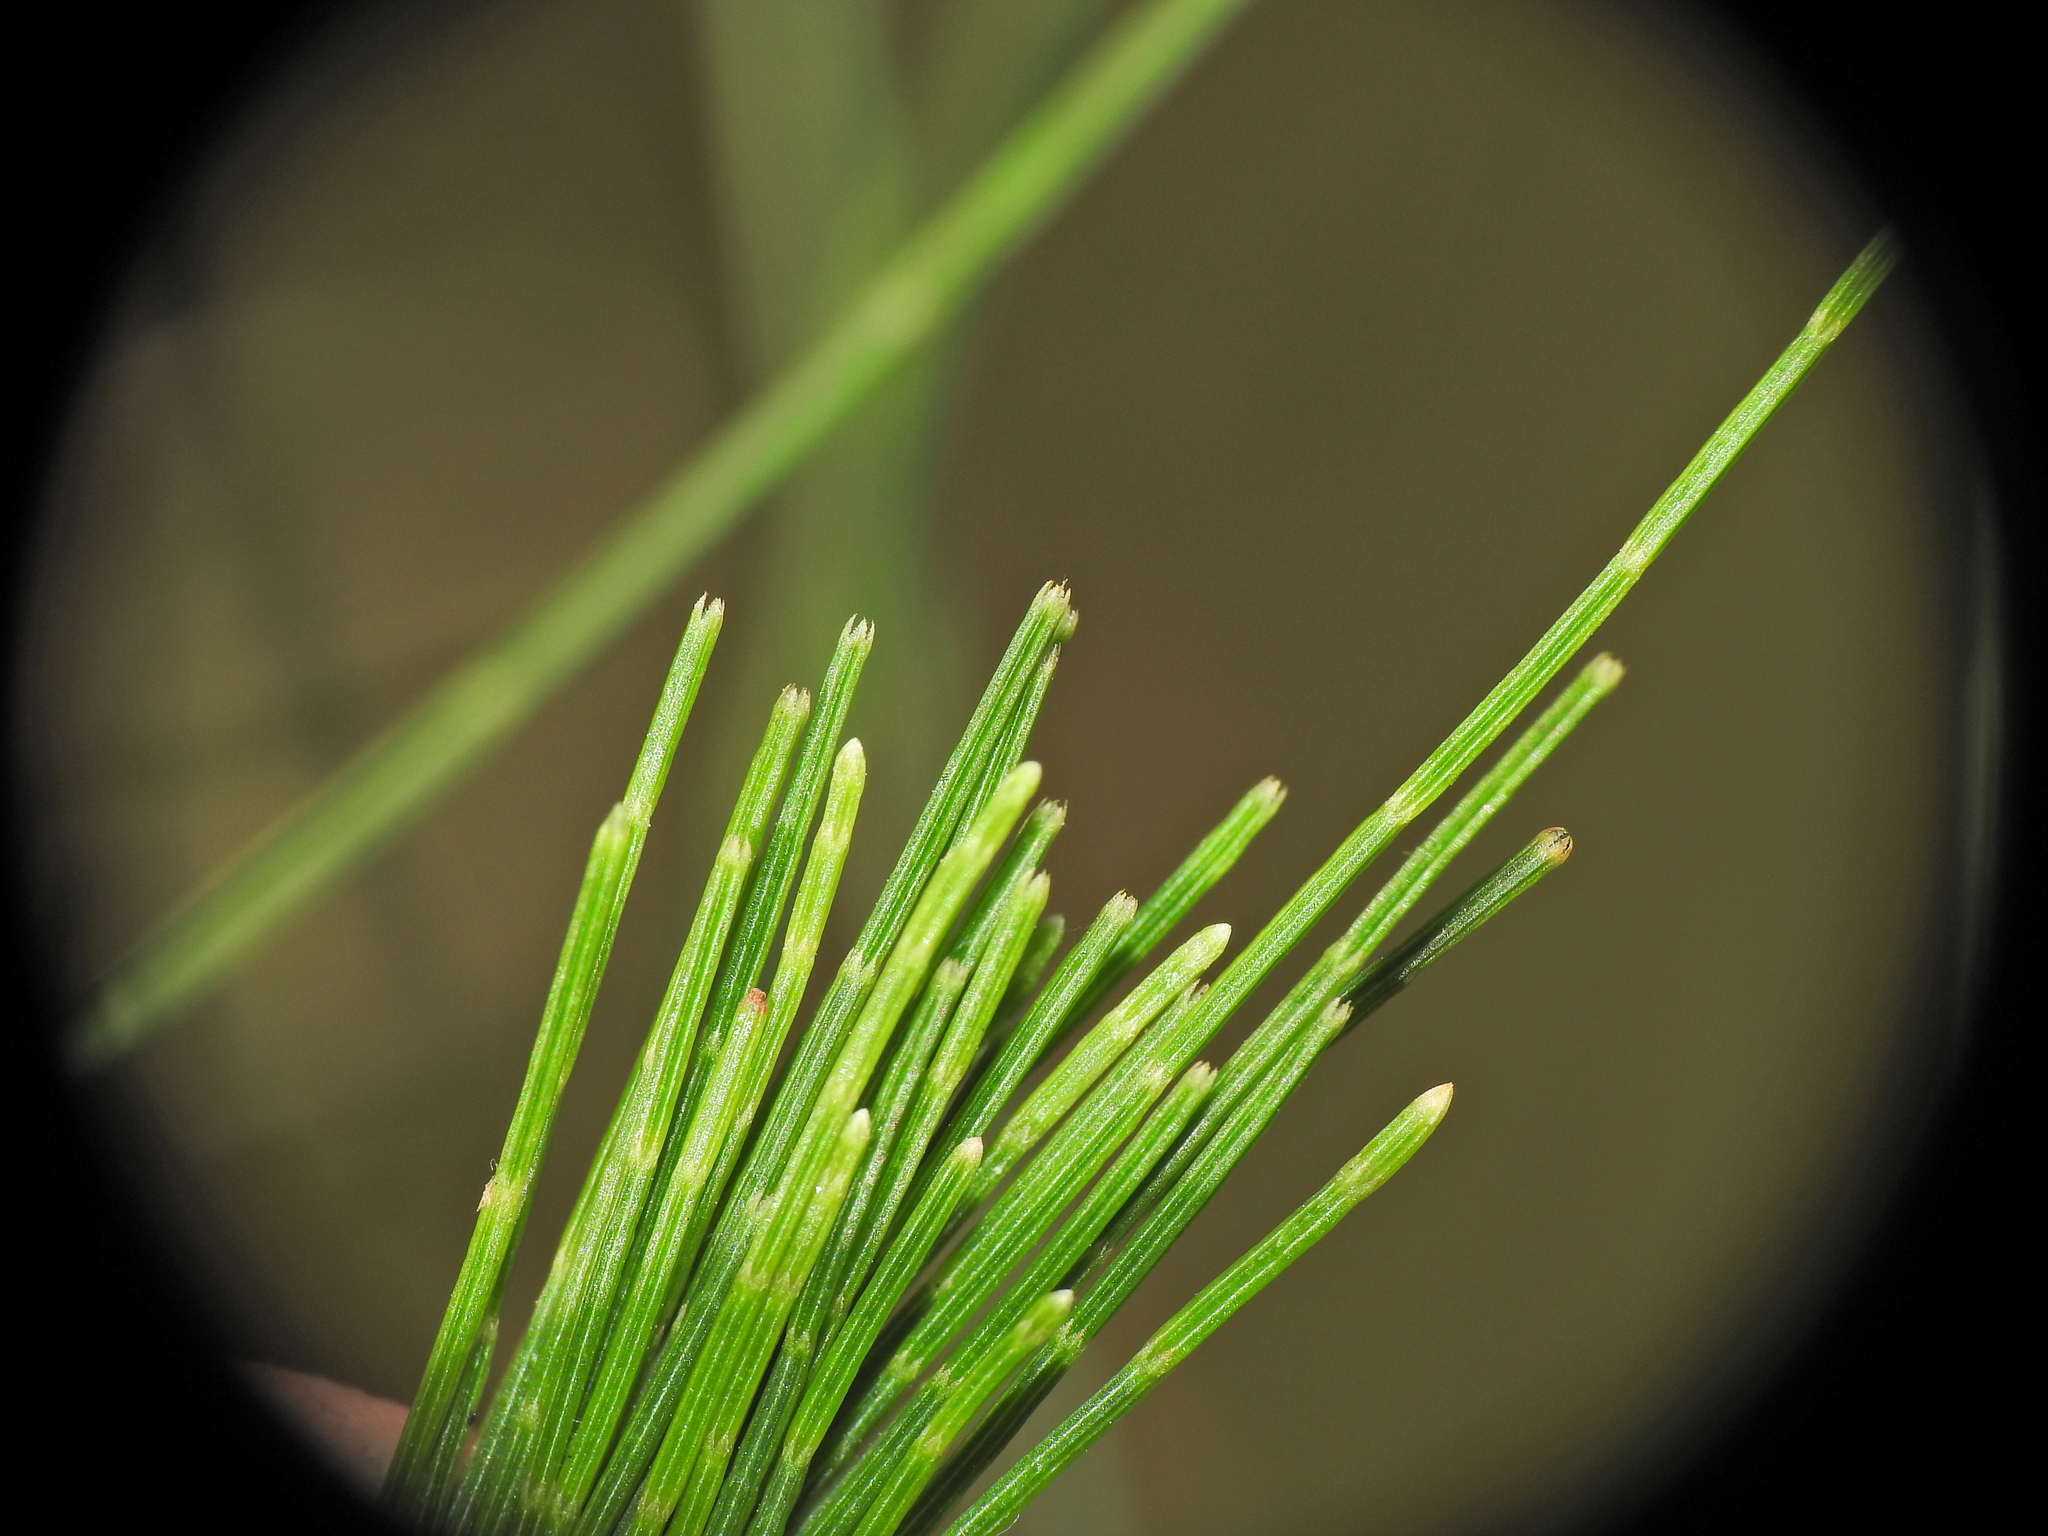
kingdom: Plantae
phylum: Tracheophyta
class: Magnoliopsida
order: Fagales
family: Casuarinaceae
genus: Allocasuarina
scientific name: Allocasuarina torulosa
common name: Forest-oak
